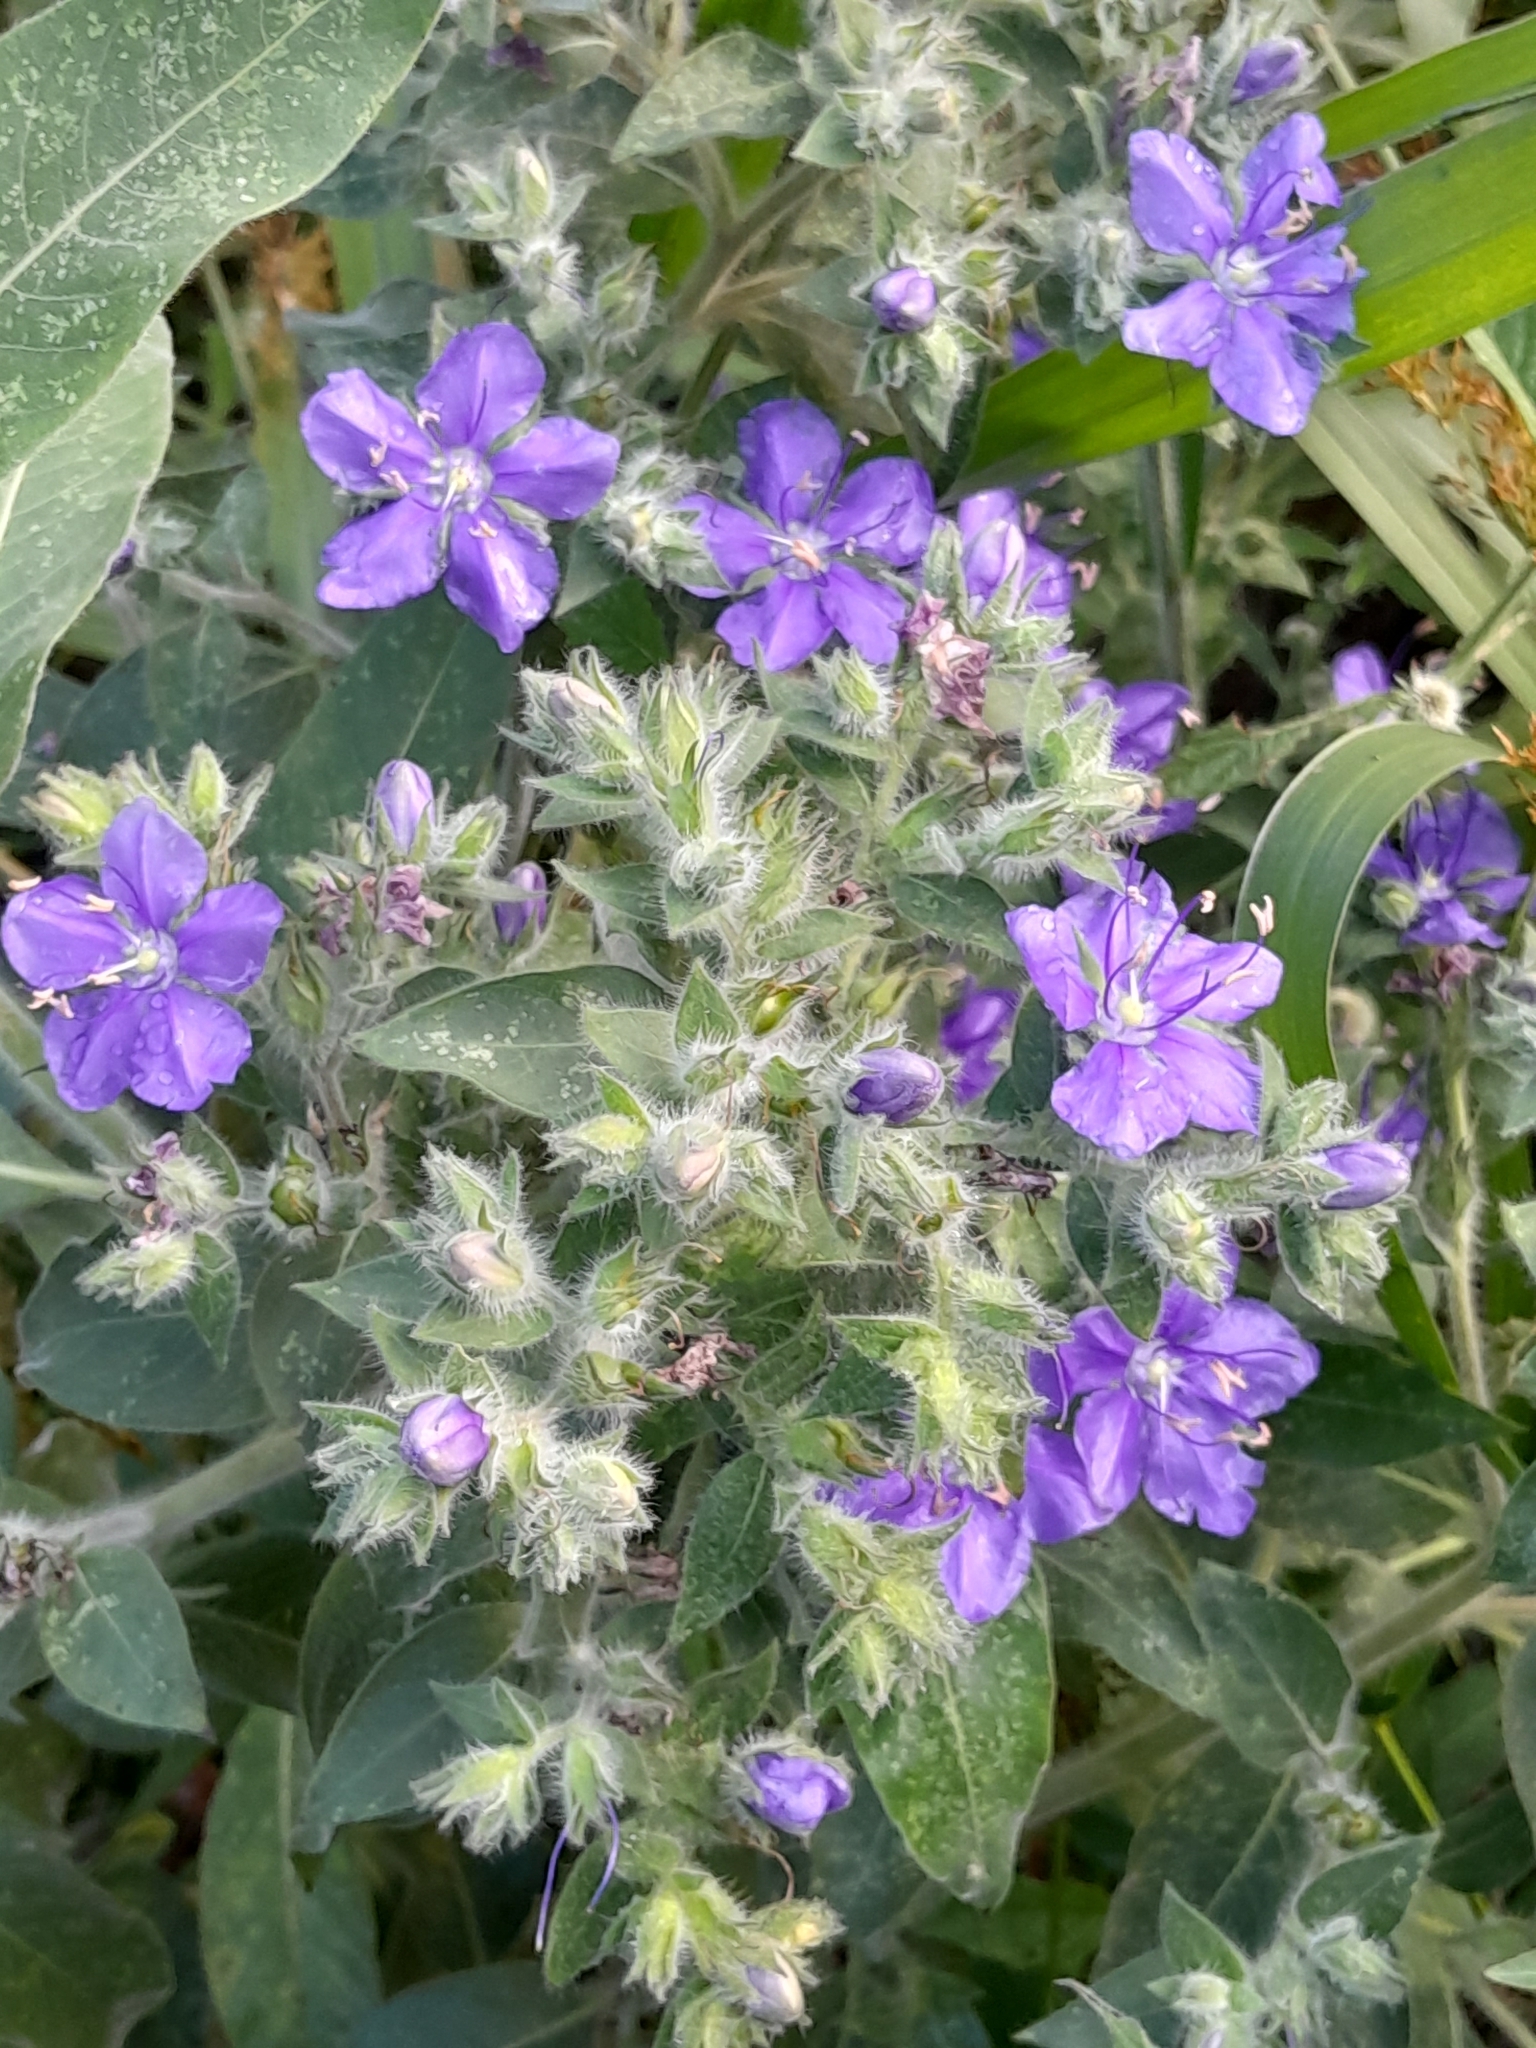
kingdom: Plantae
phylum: Tracheophyta
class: Magnoliopsida
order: Solanales
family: Hydroleaceae
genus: Hydrolea
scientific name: Hydrolea spinosa
